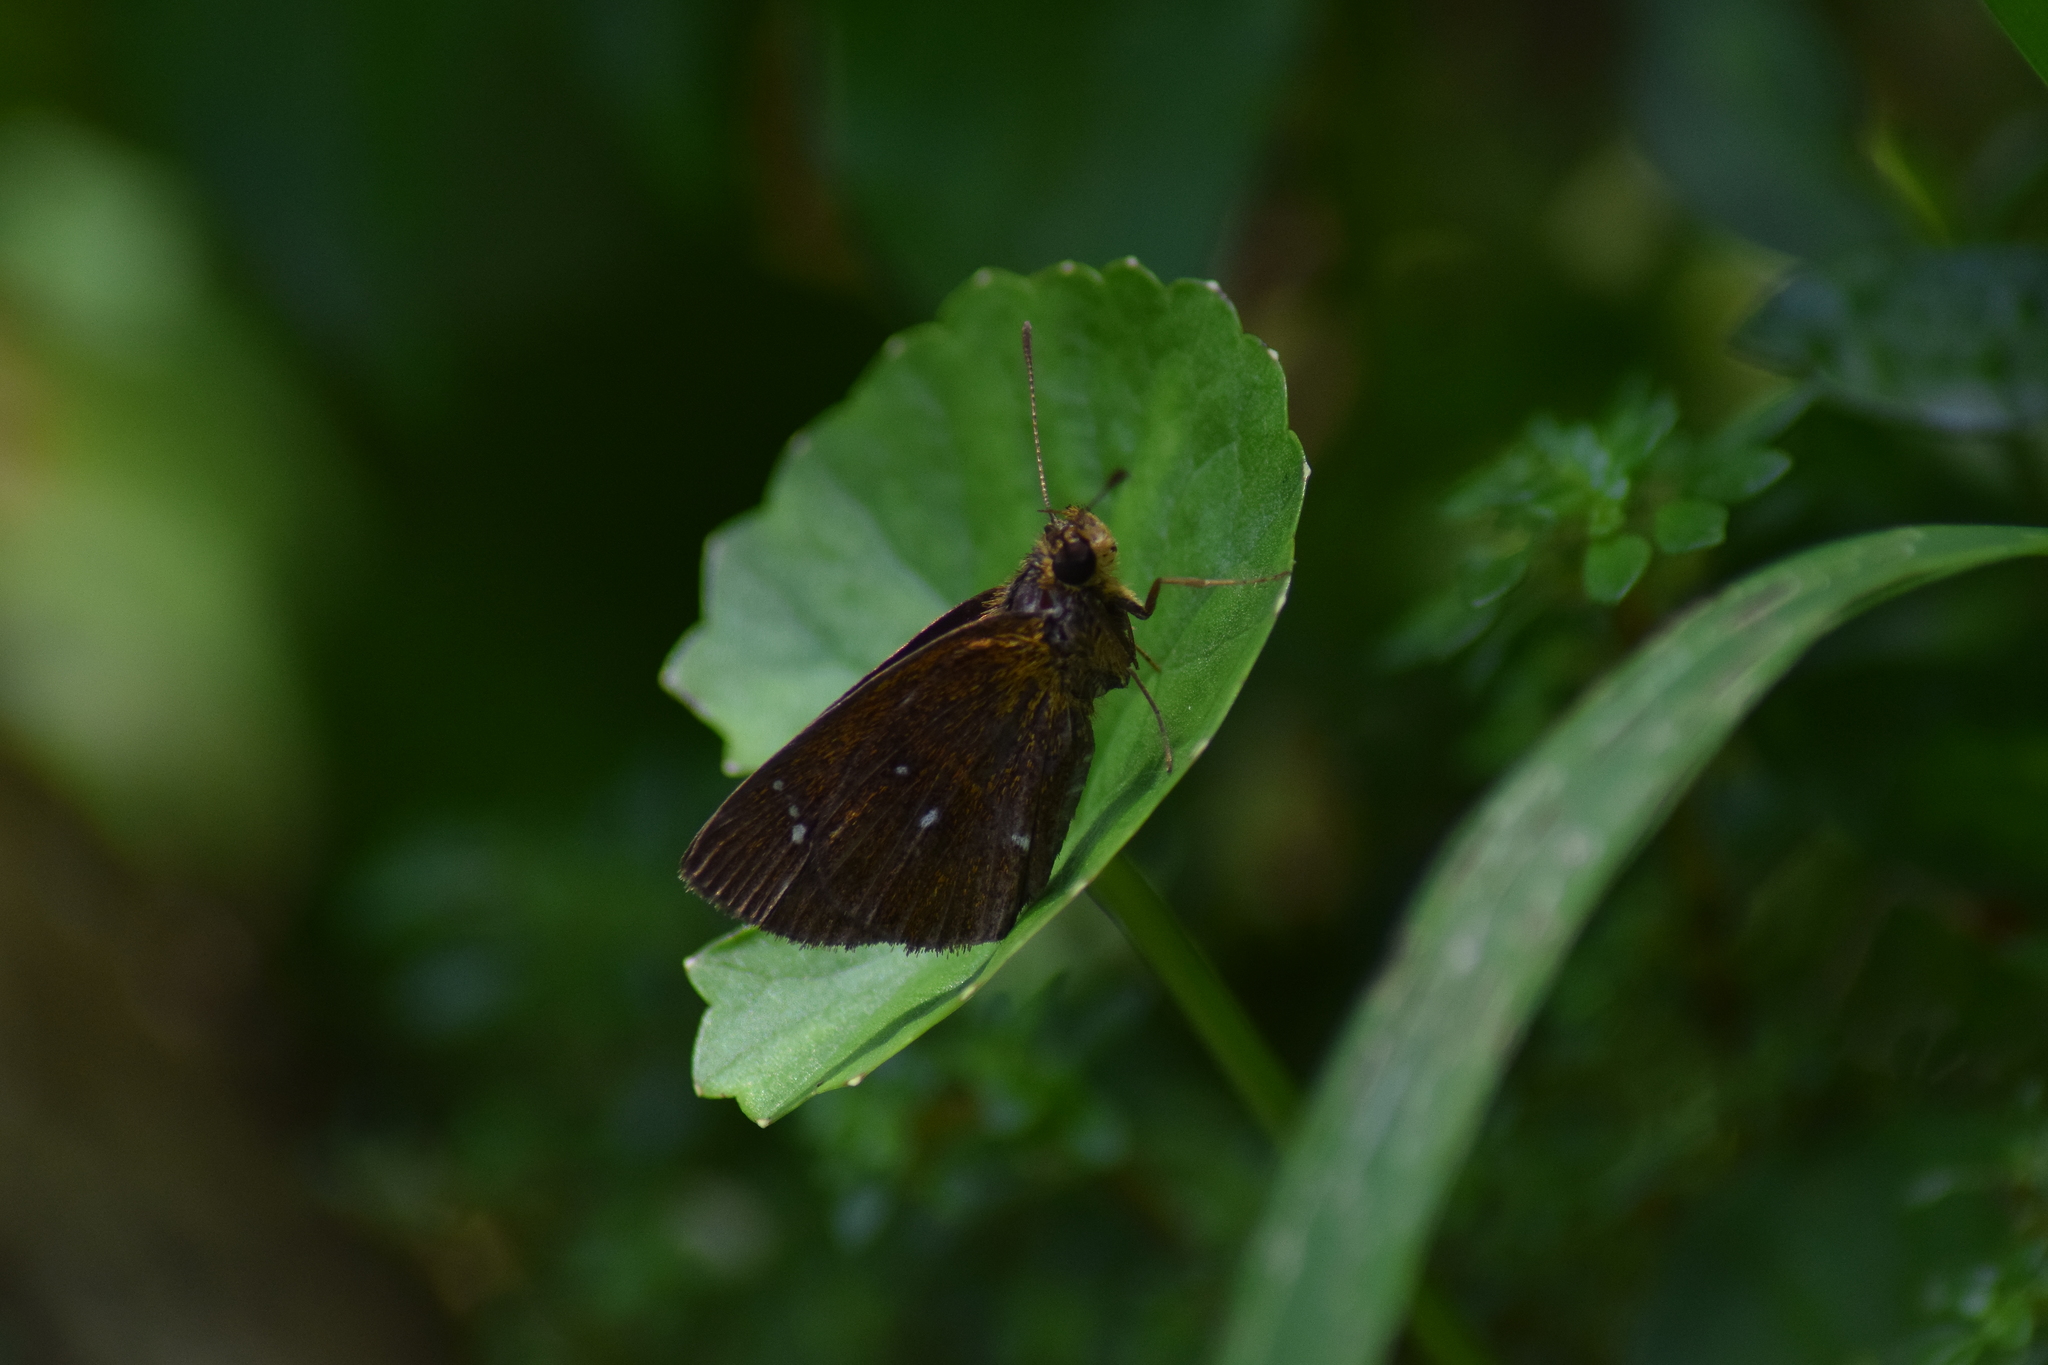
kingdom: Animalia
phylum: Arthropoda
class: Insecta
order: Lepidoptera
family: Hesperiidae
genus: Iambrix
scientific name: Iambrix salsala
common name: Chestnut bob
